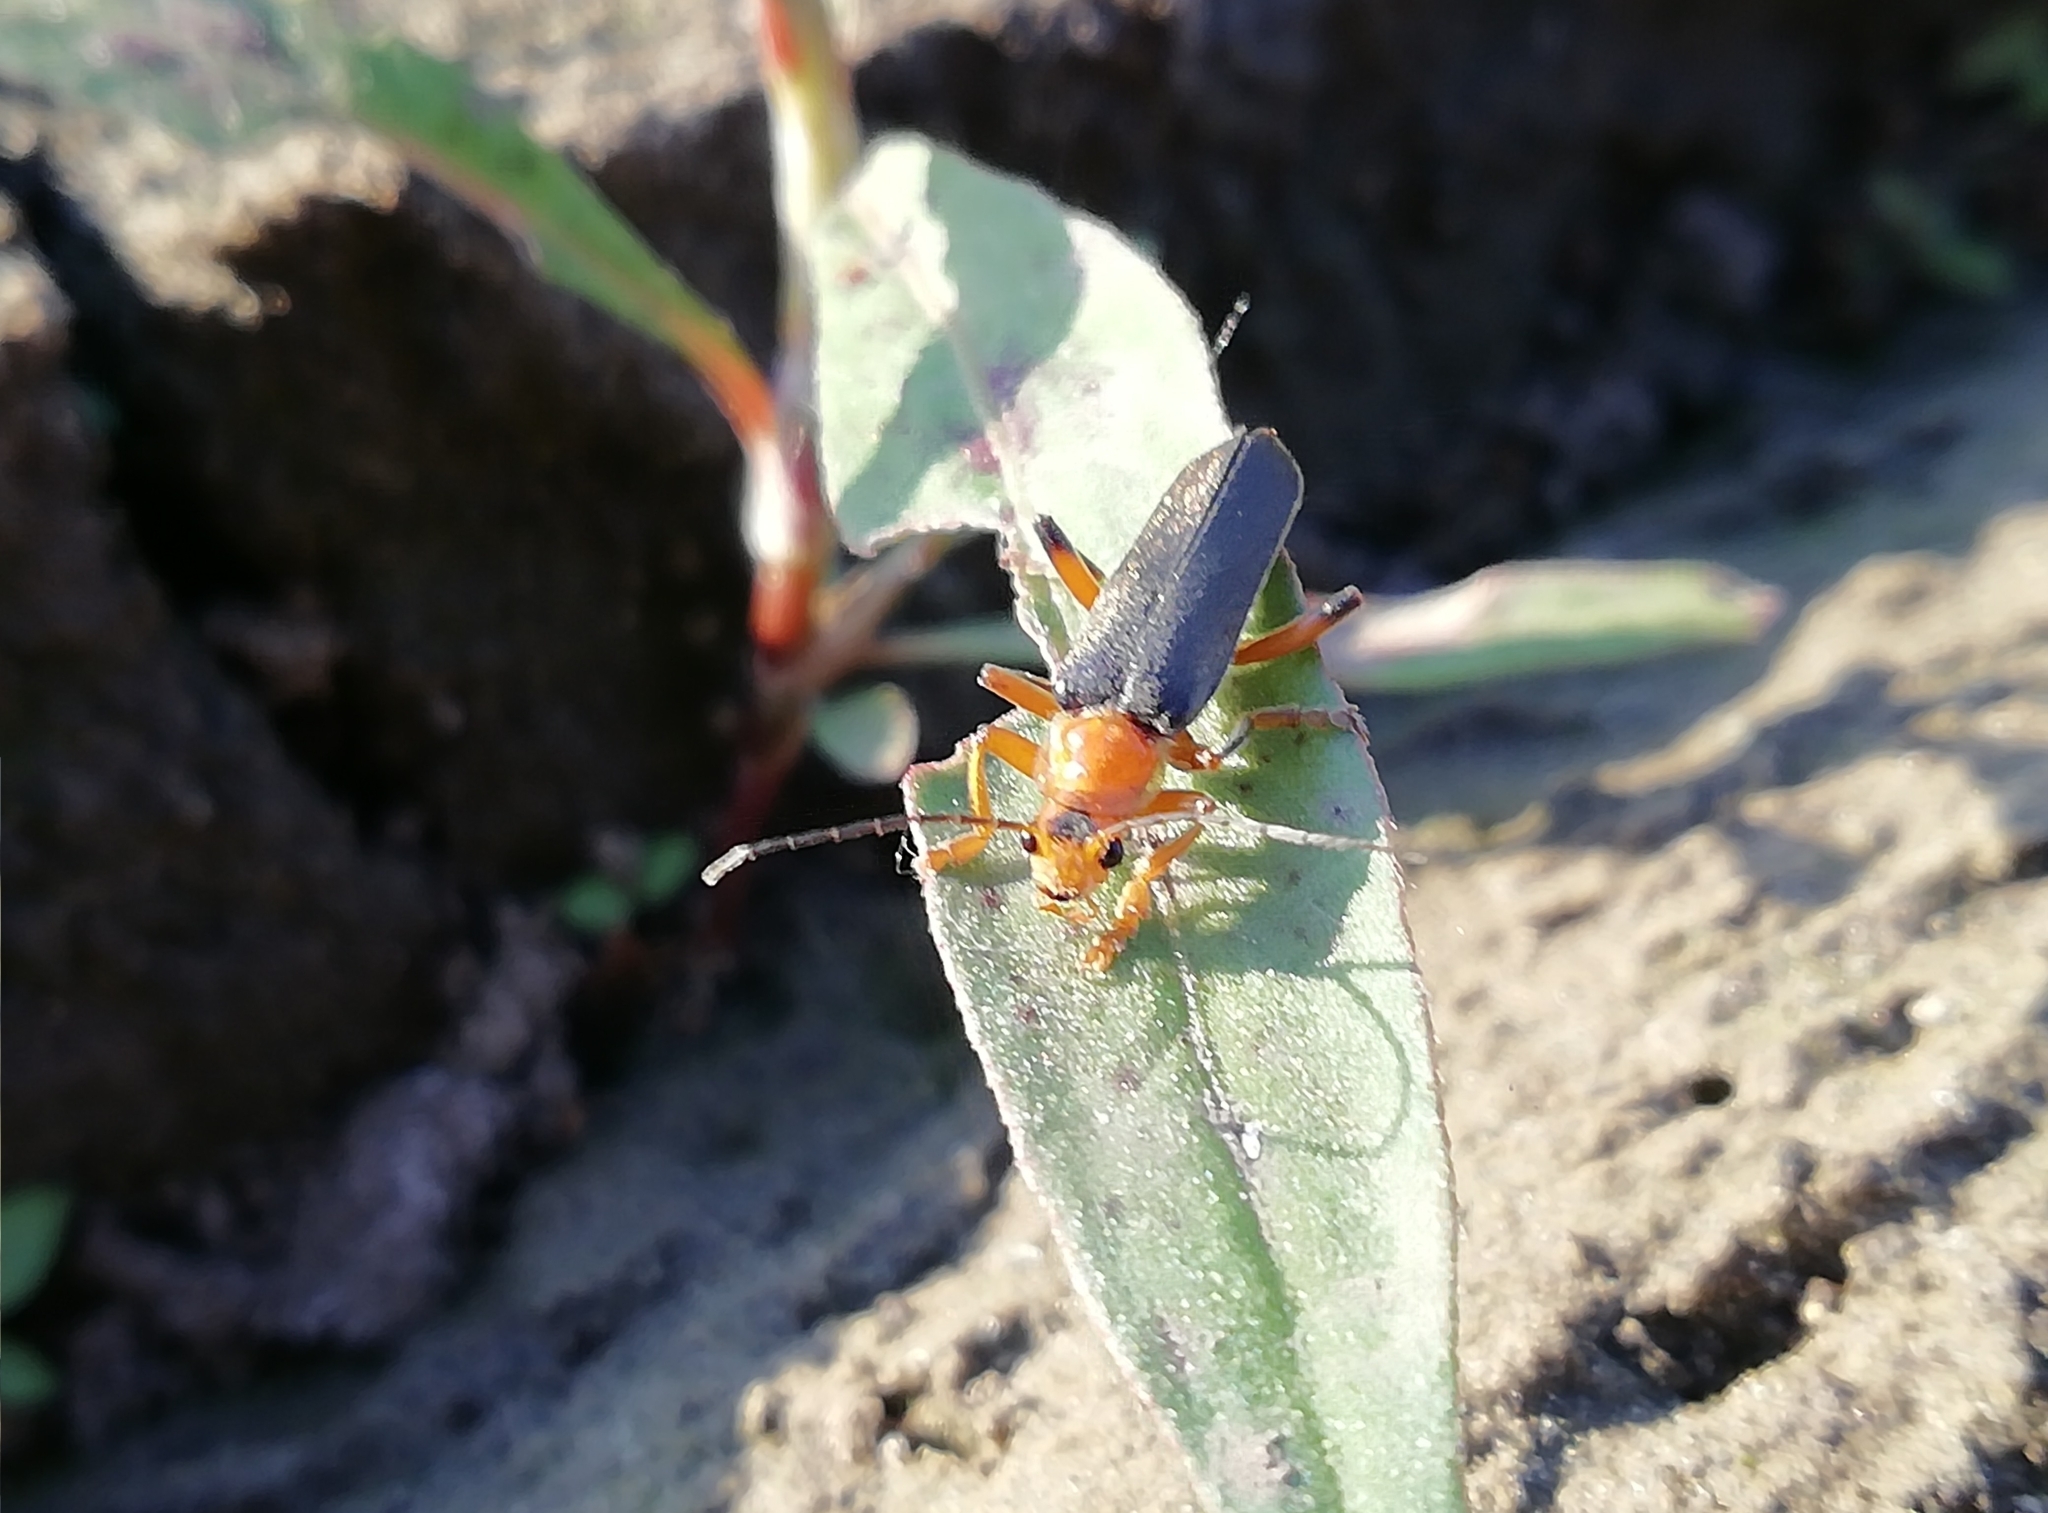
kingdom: Animalia
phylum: Arthropoda
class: Insecta
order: Coleoptera
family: Cantharidae
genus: Cantharis
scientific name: Cantharis livida
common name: Livid soldier beetle
